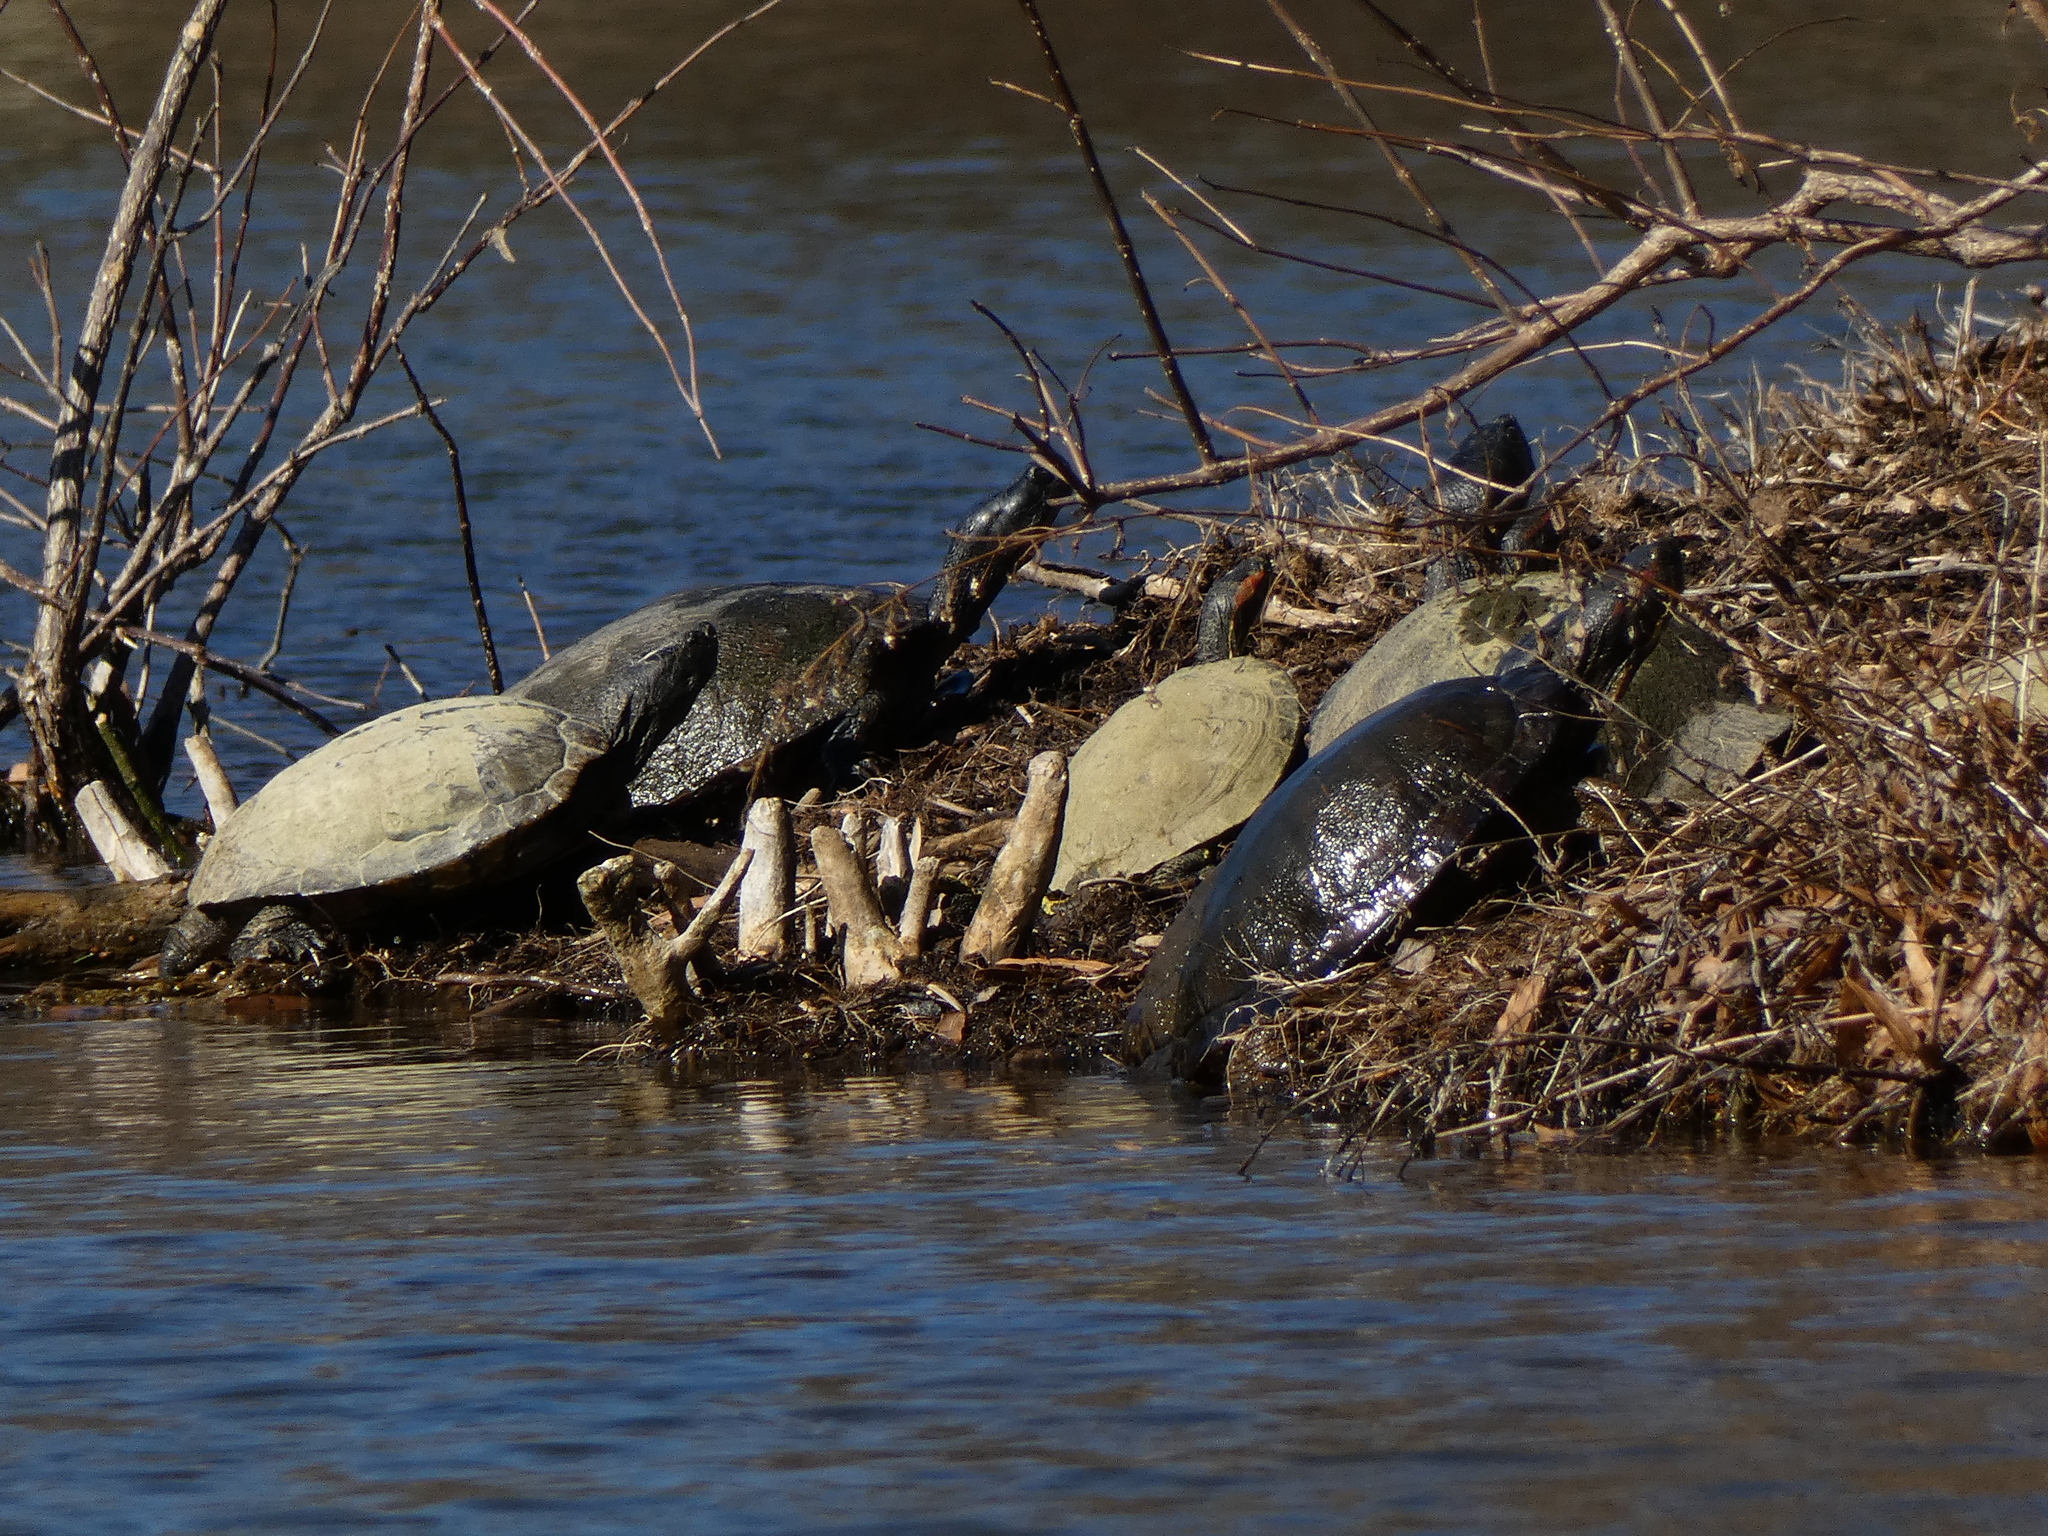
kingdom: Animalia
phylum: Chordata
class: Testudines
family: Emydidae
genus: Trachemys
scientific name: Trachemys scripta
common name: Slider
